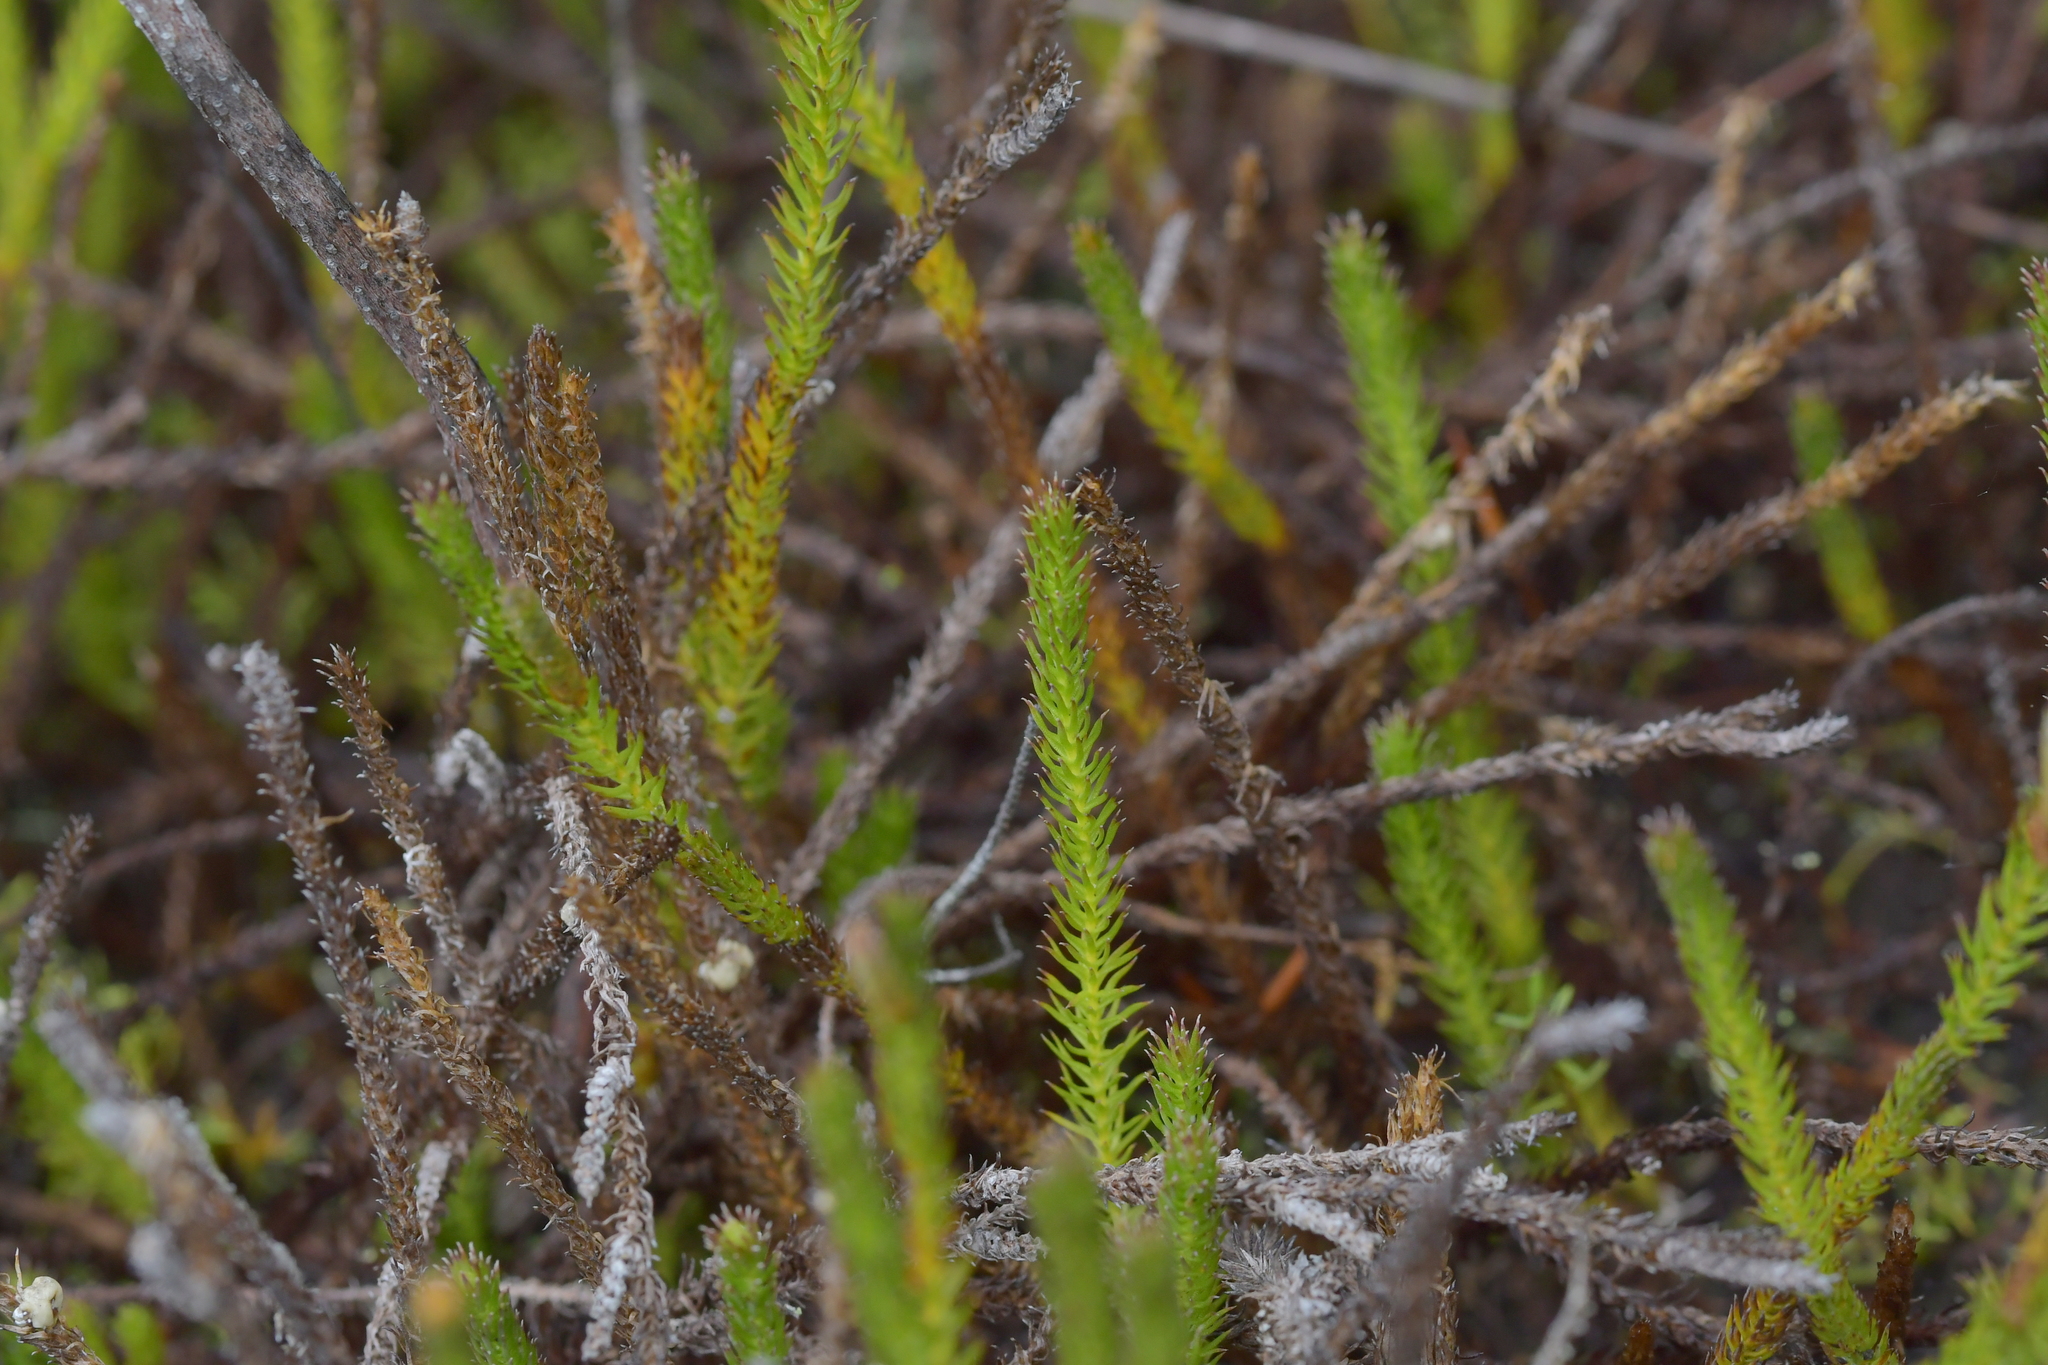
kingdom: Plantae
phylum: Tracheophyta
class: Lycopodiopsida
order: Lycopodiales
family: Lycopodiaceae
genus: Lateristachys
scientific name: Lateristachys lateralis
